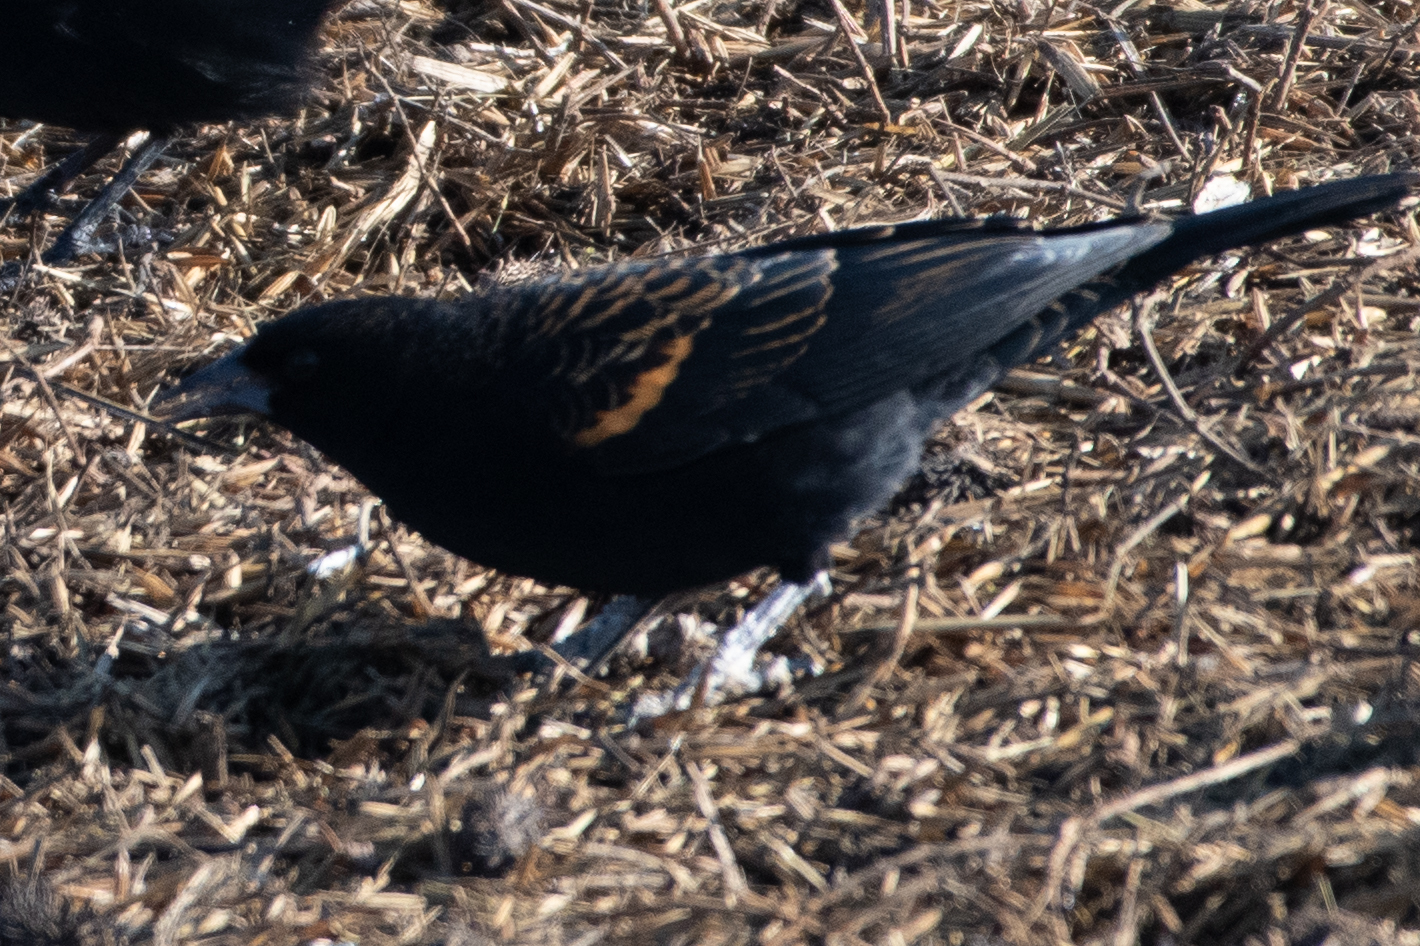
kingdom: Animalia
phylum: Chordata
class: Aves
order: Passeriformes
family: Icteridae
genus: Agelaius
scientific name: Agelaius phoeniceus
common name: Red-winged blackbird
